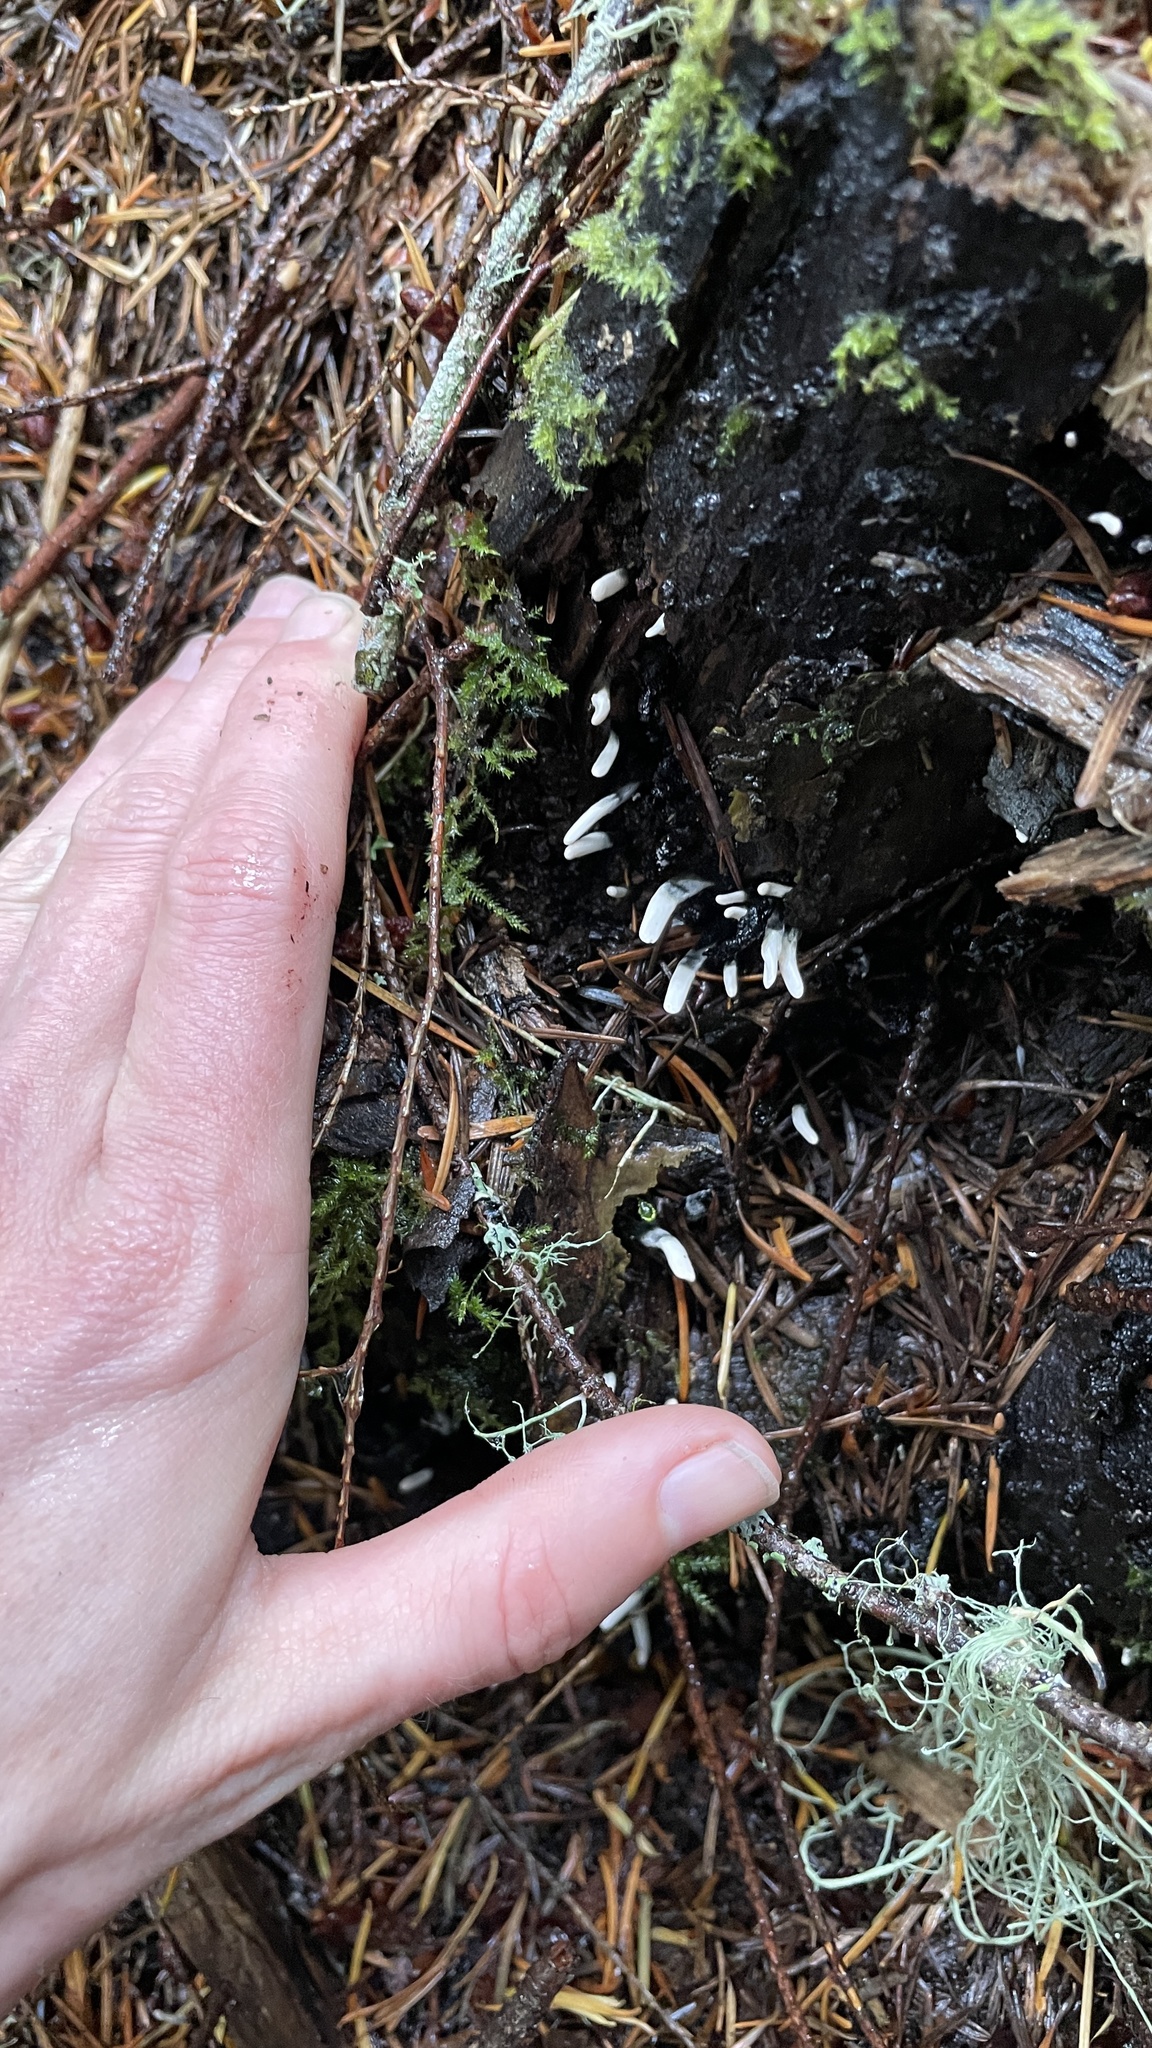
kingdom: Fungi
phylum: Ascomycota
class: Sordariomycetes
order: Xylariales
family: Xylariaceae
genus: Xylaria
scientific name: Xylaria hypoxylon
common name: Candle-snuff fungus
